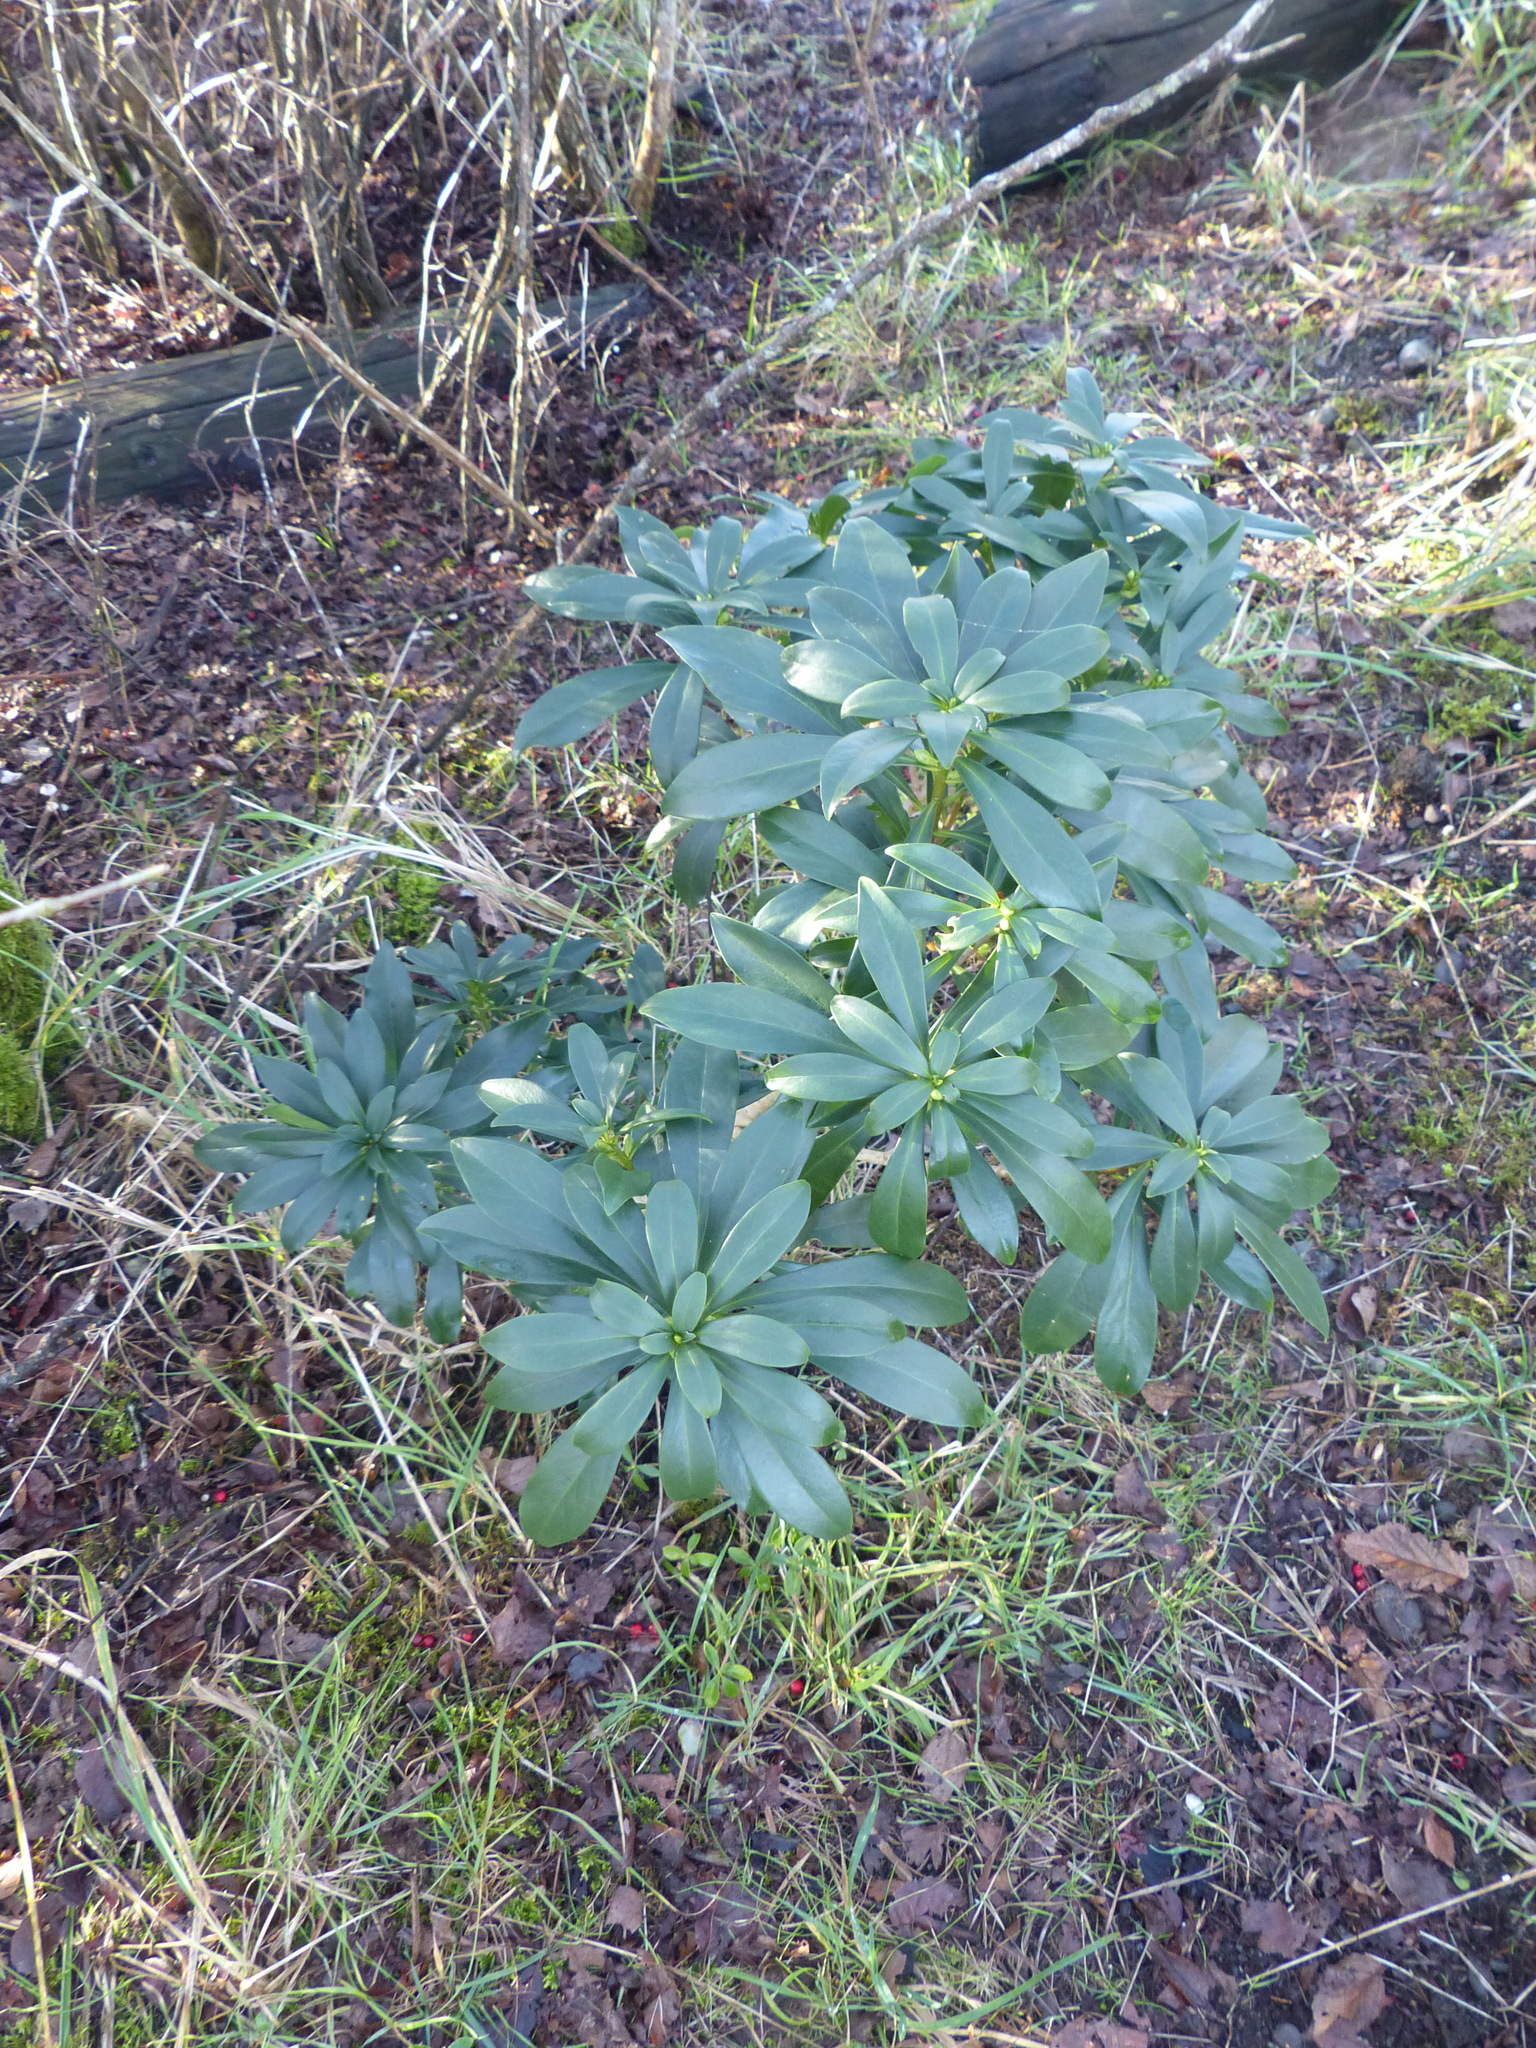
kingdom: Plantae
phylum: Tracheophyta
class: Magnoliopsida
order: Malvales
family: Thymelaeaceae
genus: Daphne
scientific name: Daphne laureola
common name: Spurge-laurel
